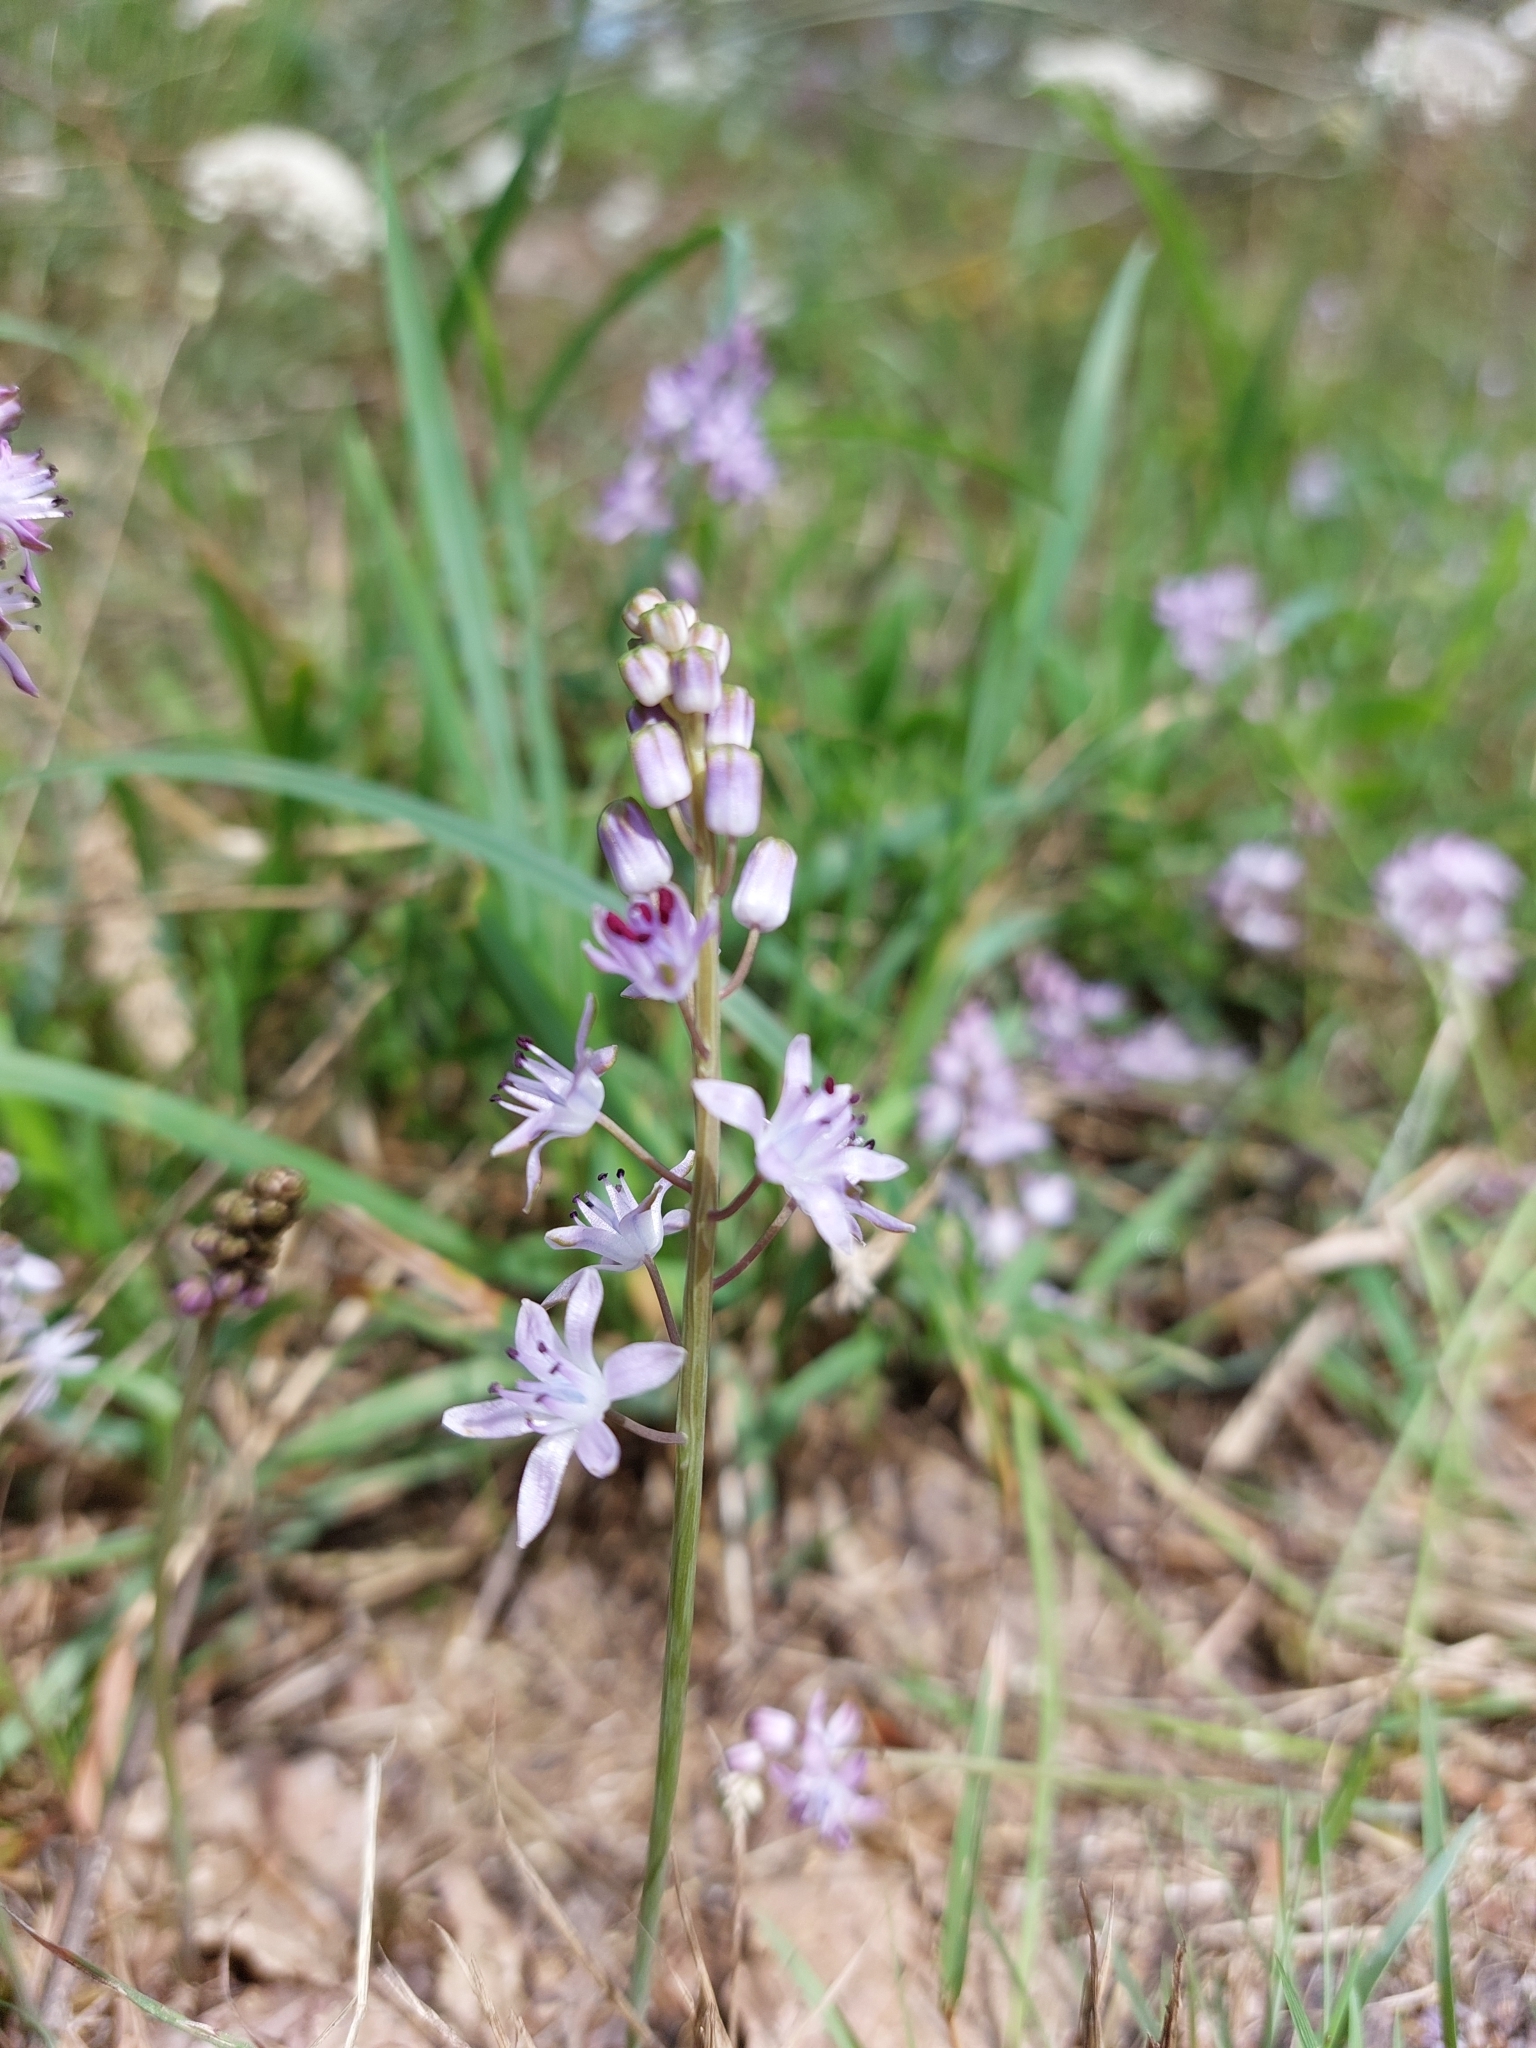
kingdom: Plantae
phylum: Tracheophyta
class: Liliopsida
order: Asparagales
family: Asparagaceae
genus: Prospero
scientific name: Prospero autumnale
